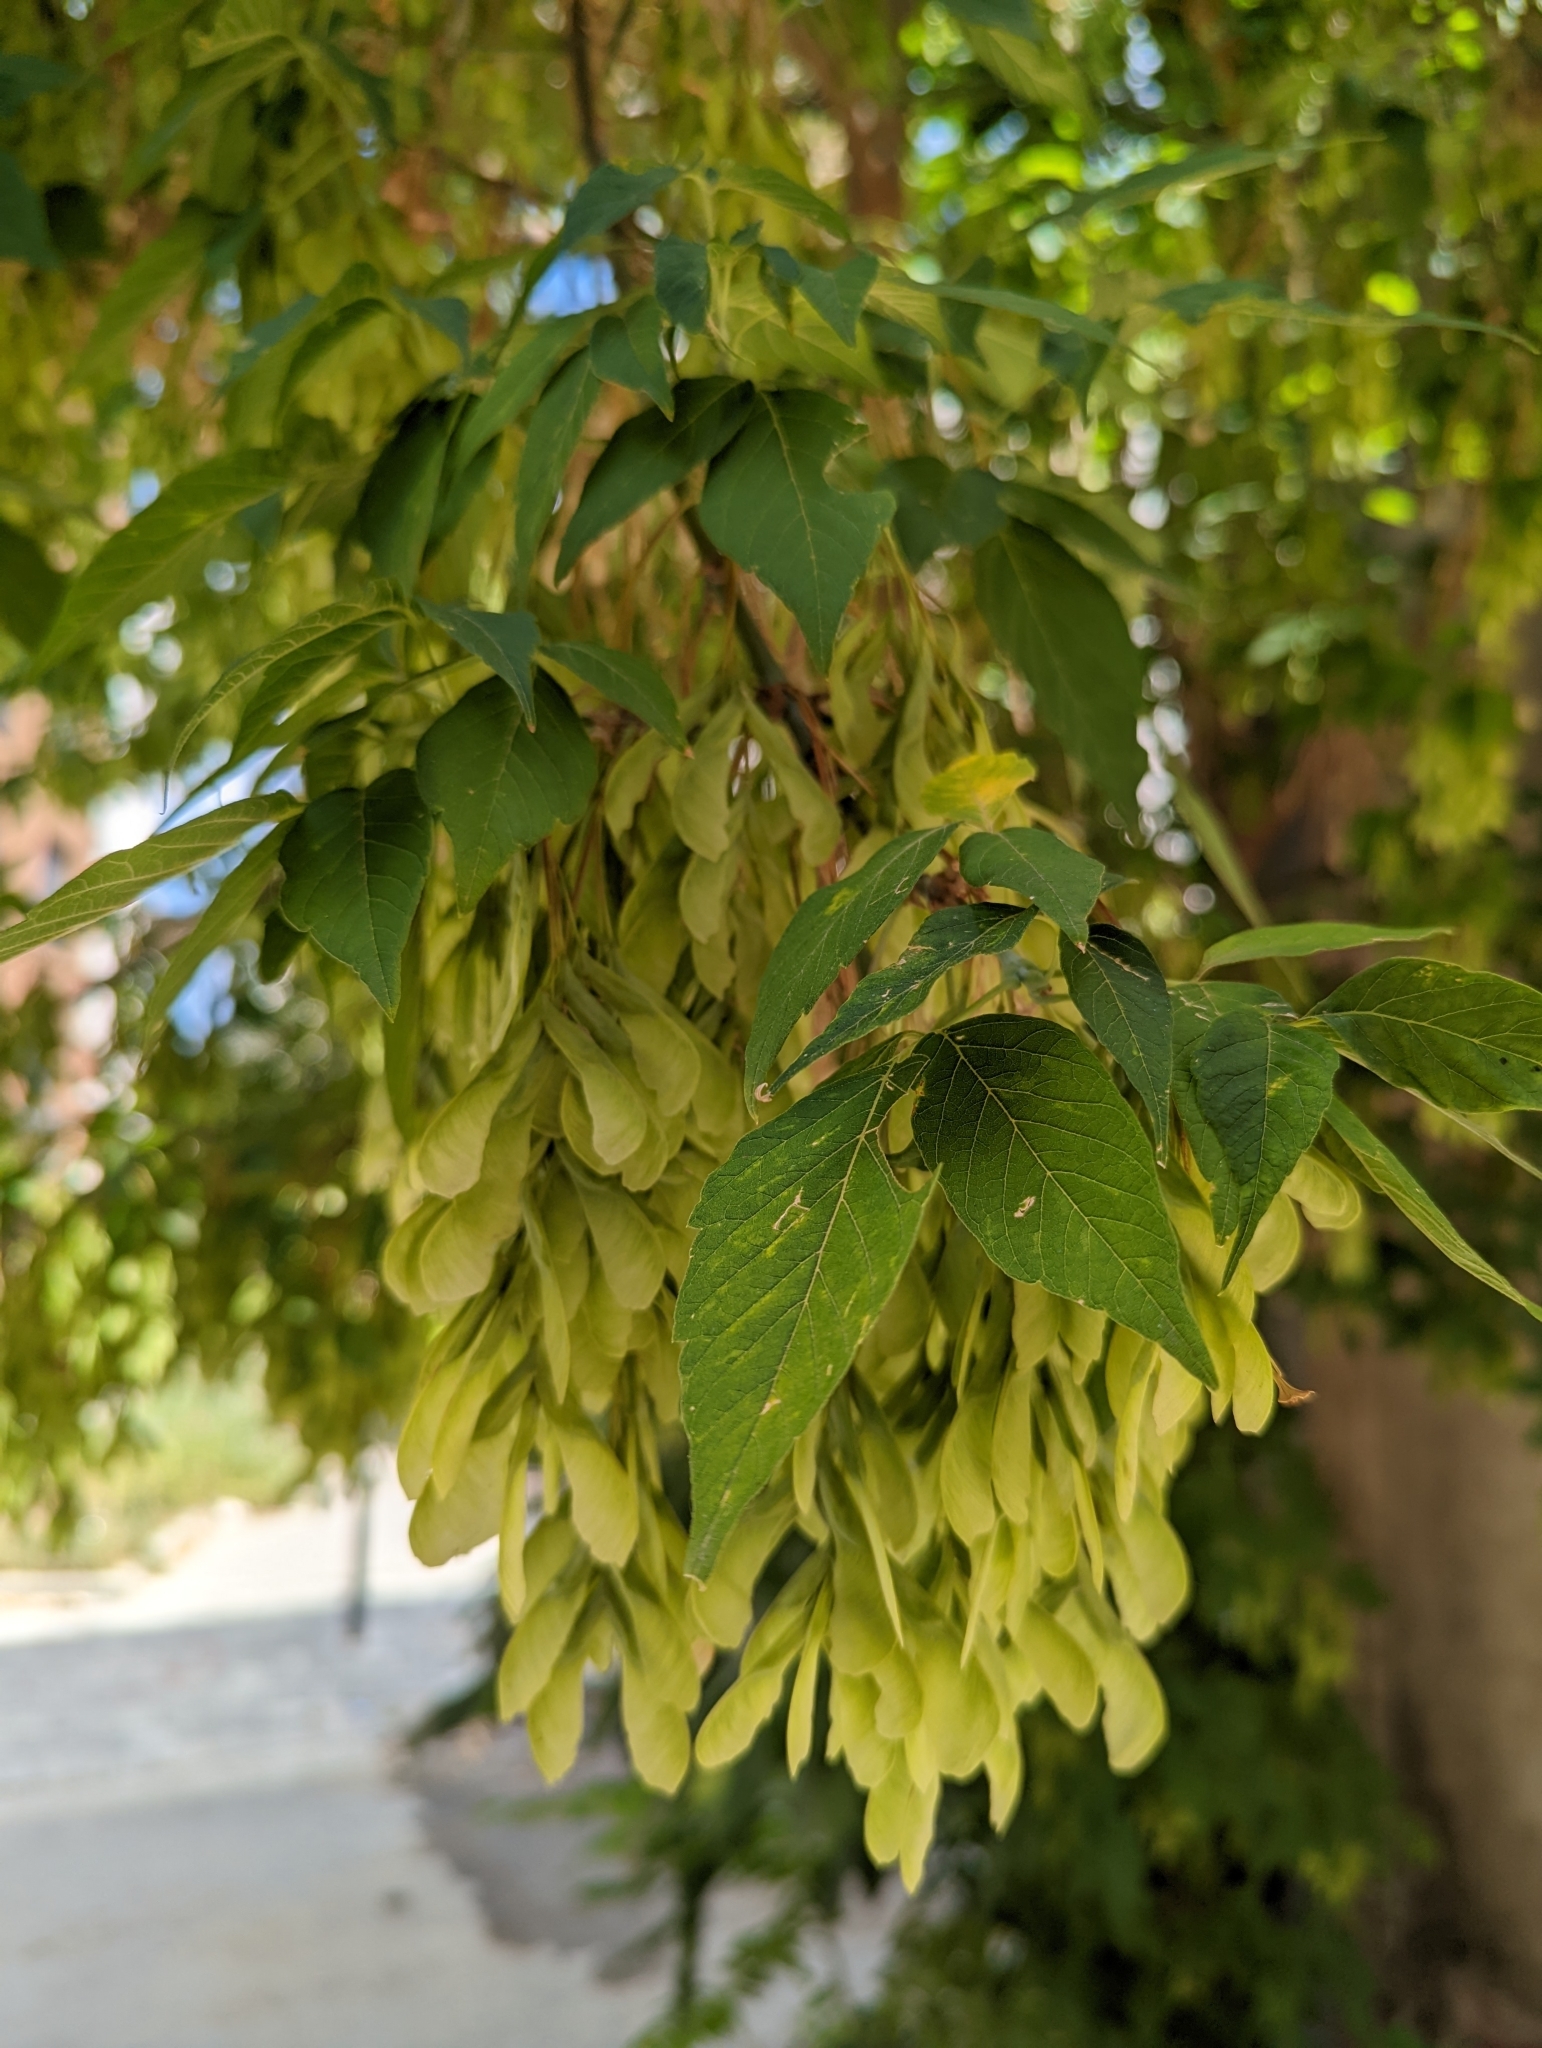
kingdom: Plantae
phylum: Tracheophyta
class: Magnoliopsida
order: Sapindales
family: Sapindaceae
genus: Acer
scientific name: Acer negundo
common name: Ashleaf maple
